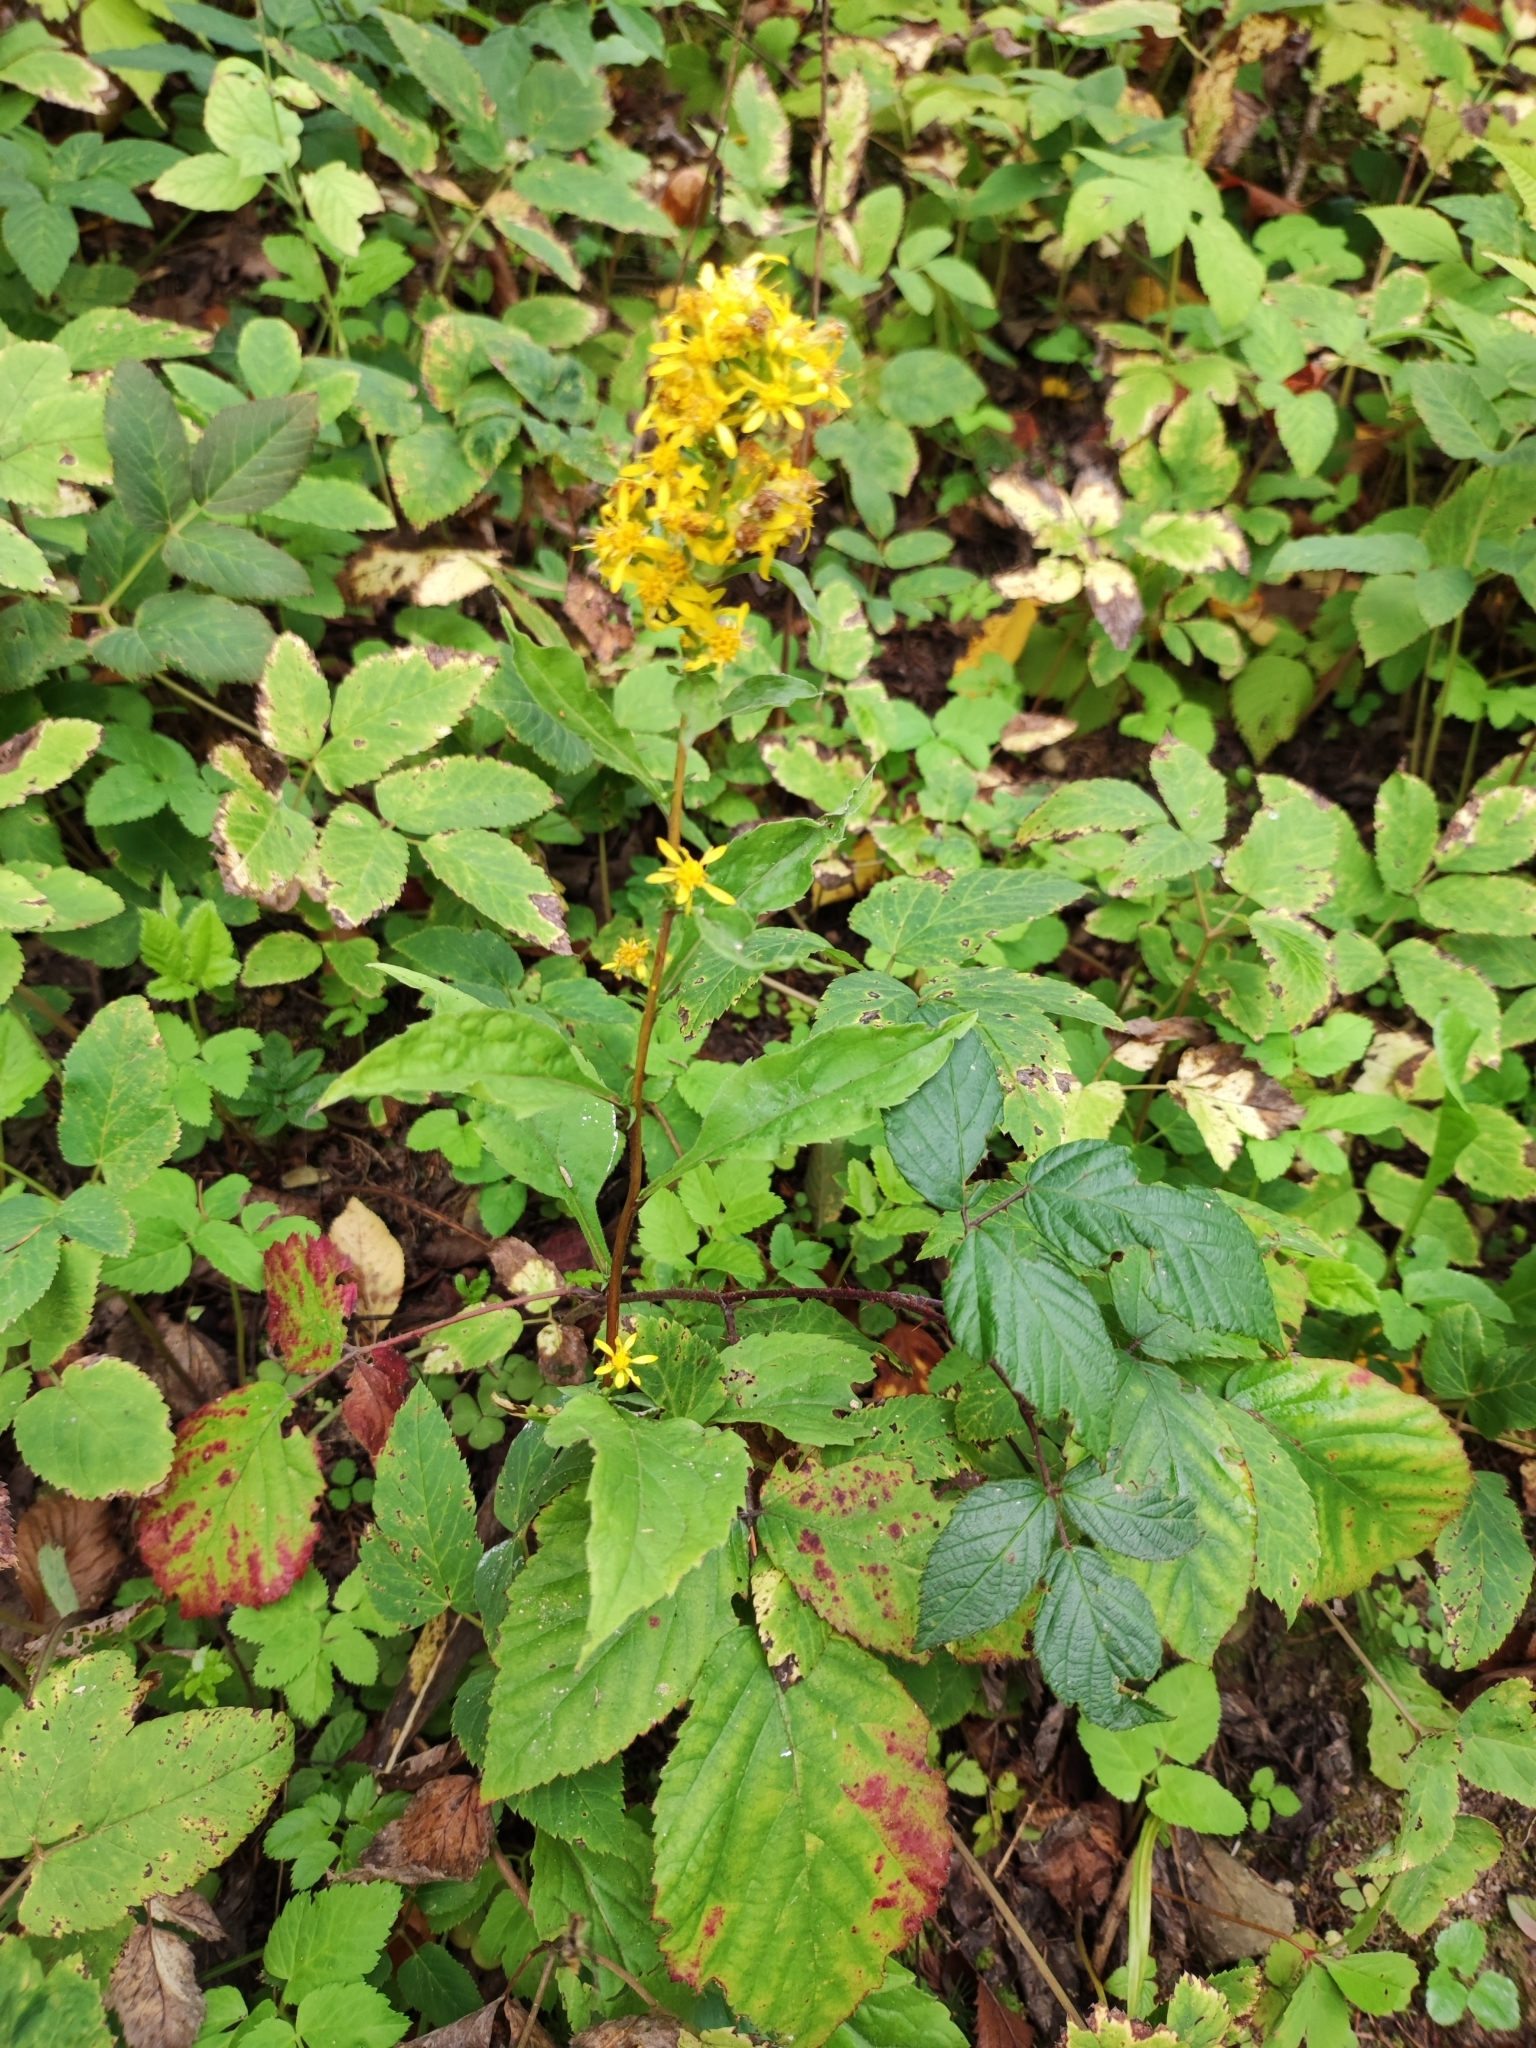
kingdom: Plantae
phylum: Tracheophyta
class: Magnoliopsida
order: Asterales
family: Asteraceae
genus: Solidago
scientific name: Solidago virgaurea
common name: Goldenrod
